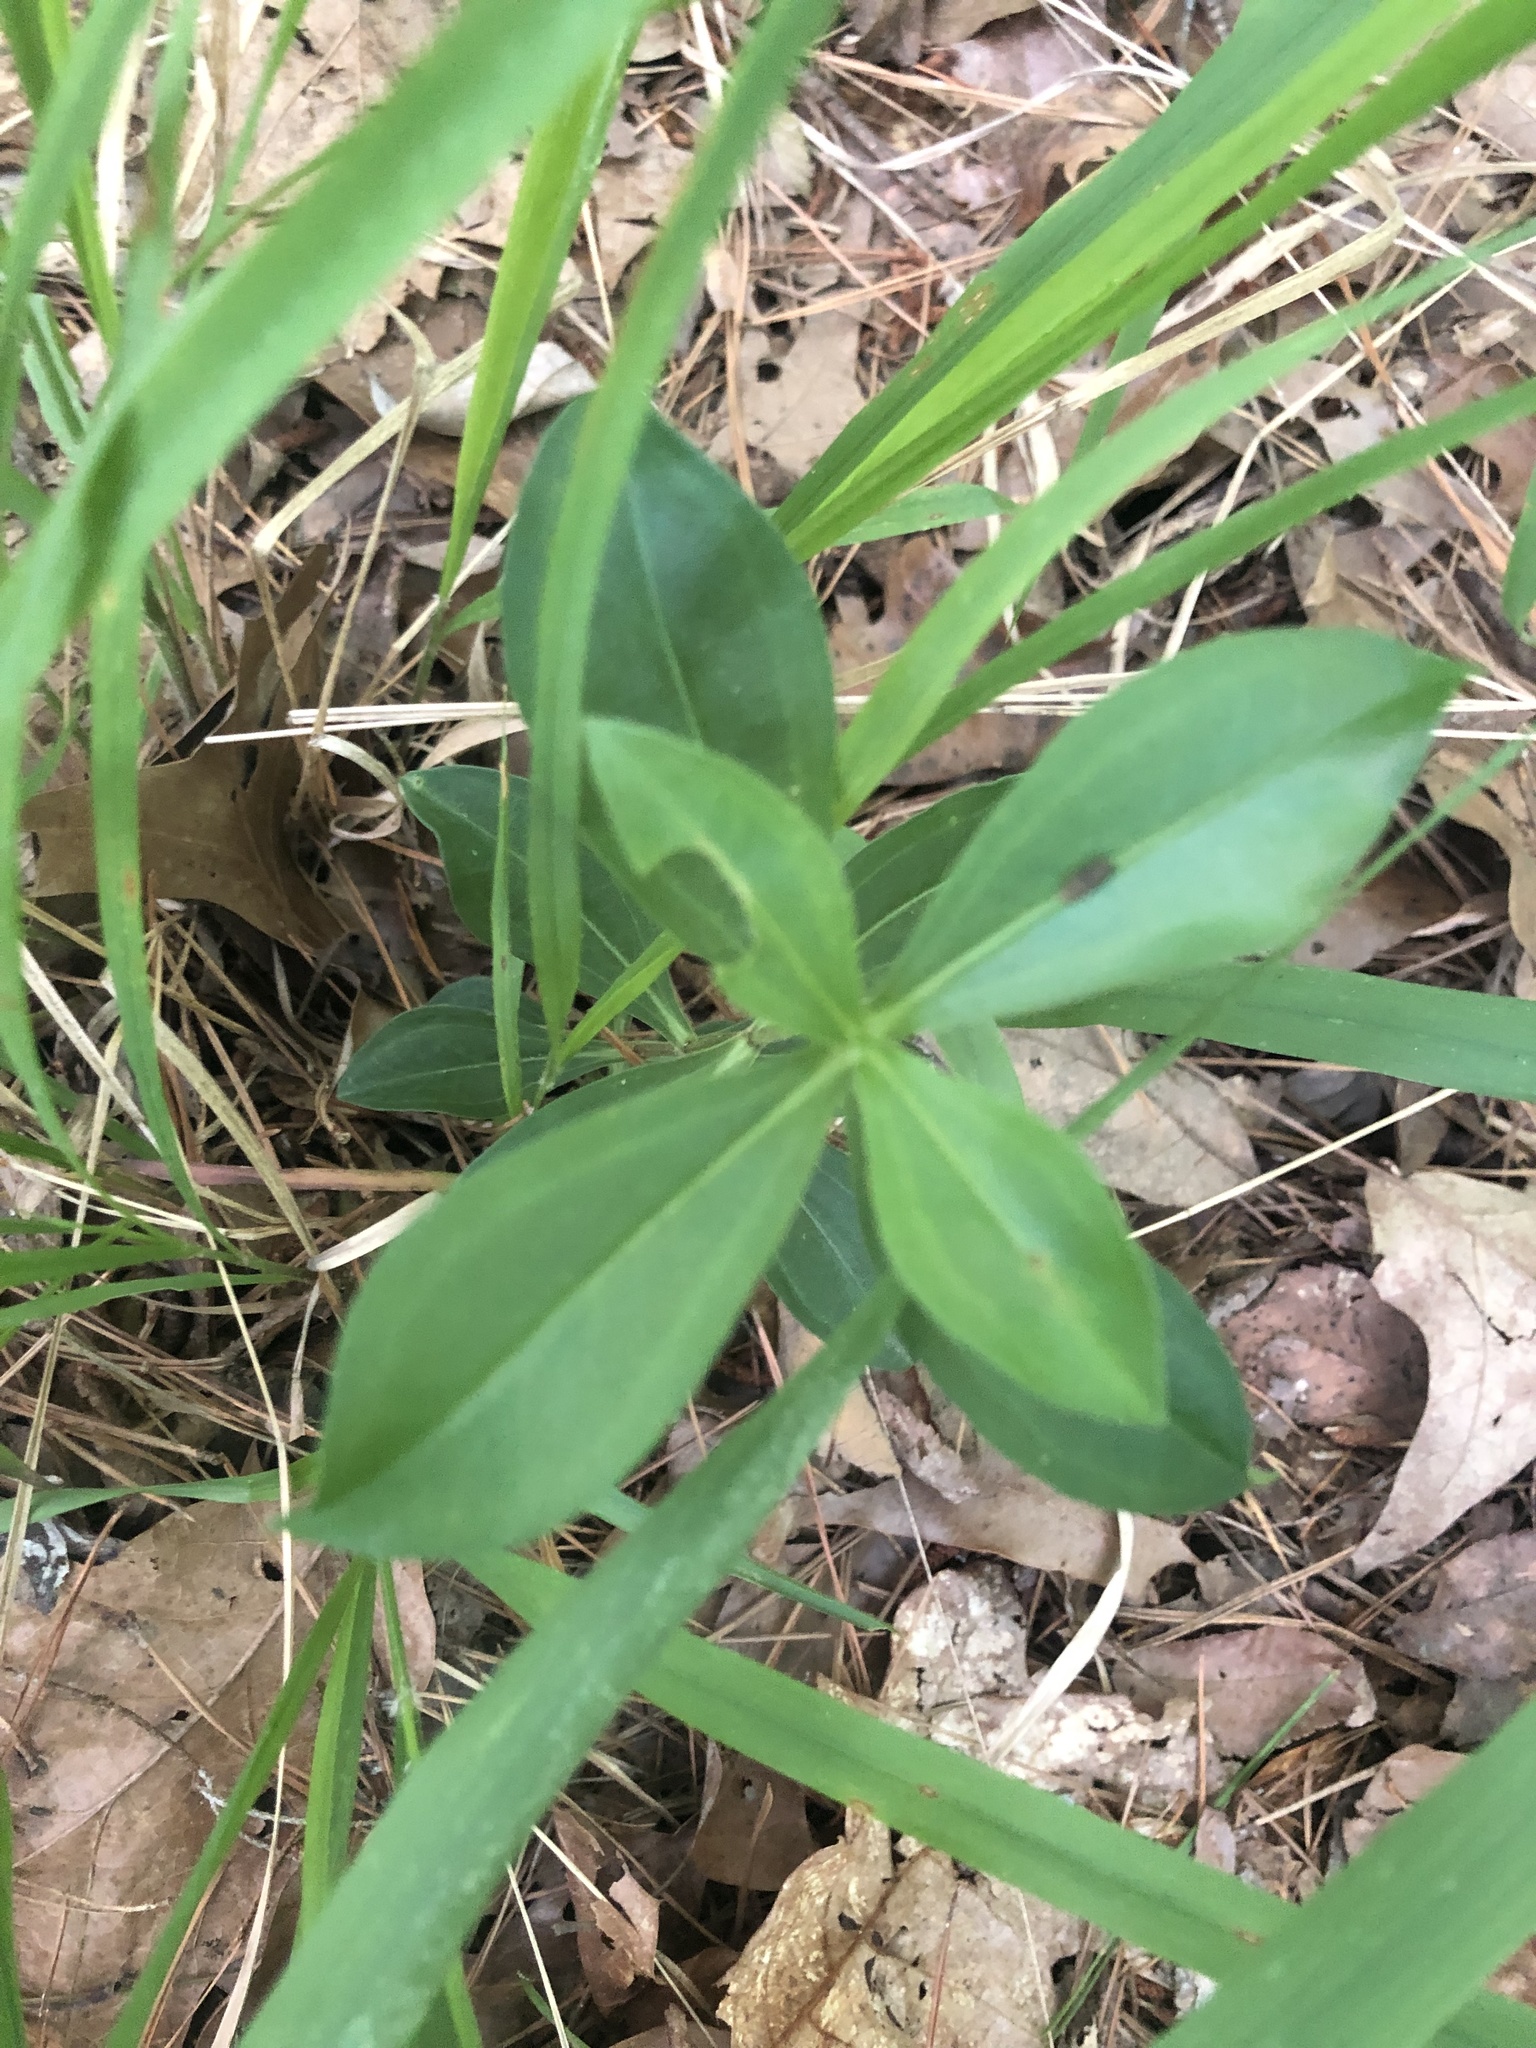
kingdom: Plantae
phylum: Tracheophyta
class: Magnoliopsida
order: Gentianales
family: Gentianaceae
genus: Gentiana
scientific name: Gentiana villosa
